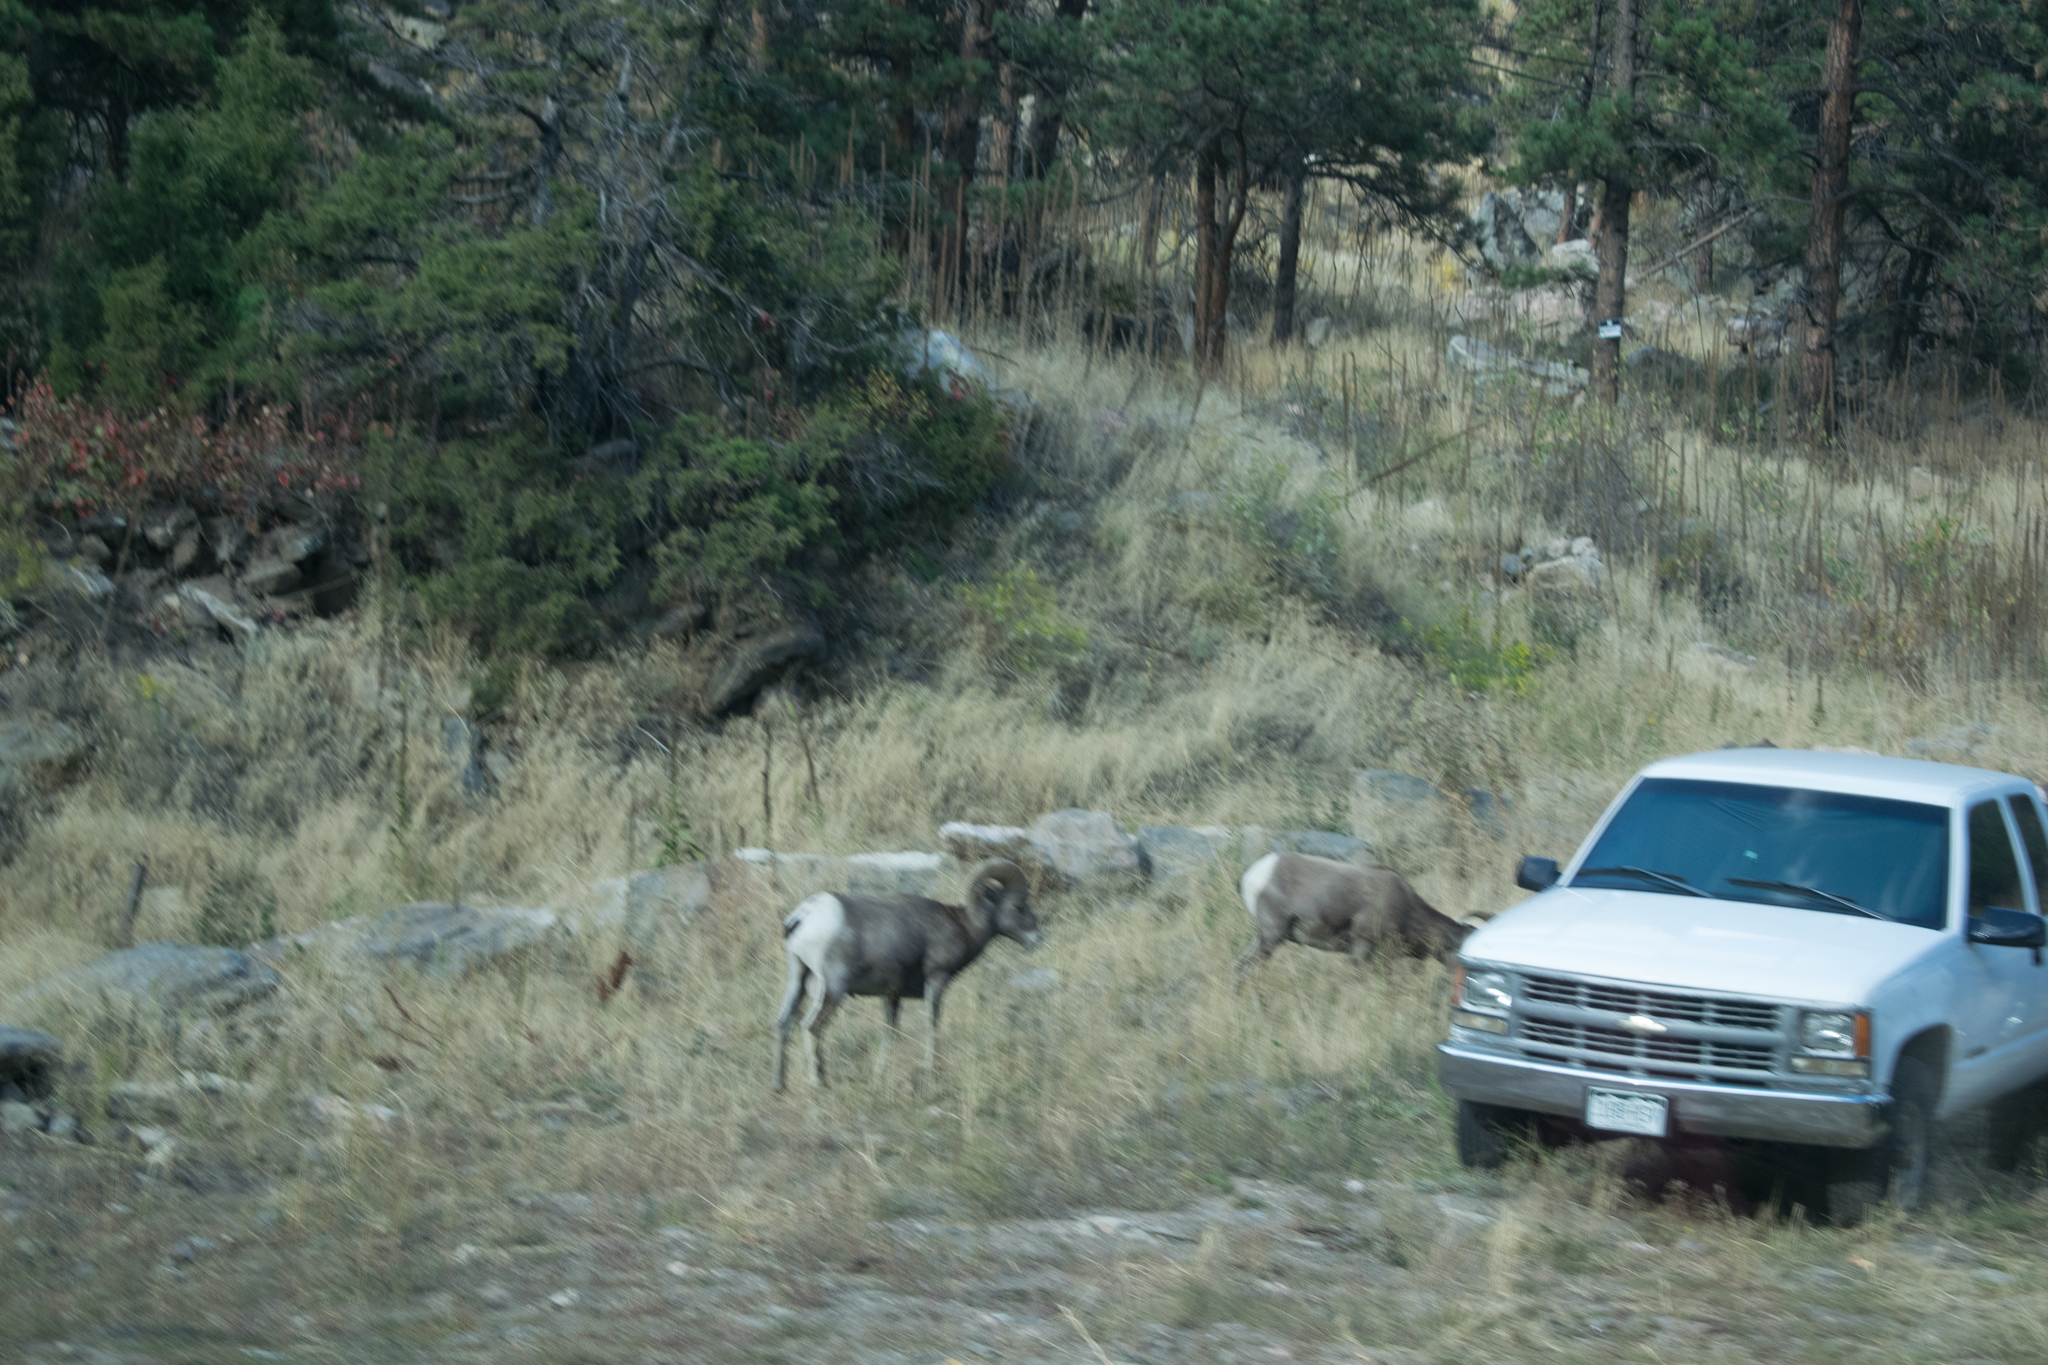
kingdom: Animalia
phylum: Chordata
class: Mammalia
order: Artiodactyla
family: Bovidae
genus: Ovis
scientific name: Ovis canadensis
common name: Bighorn sheep
